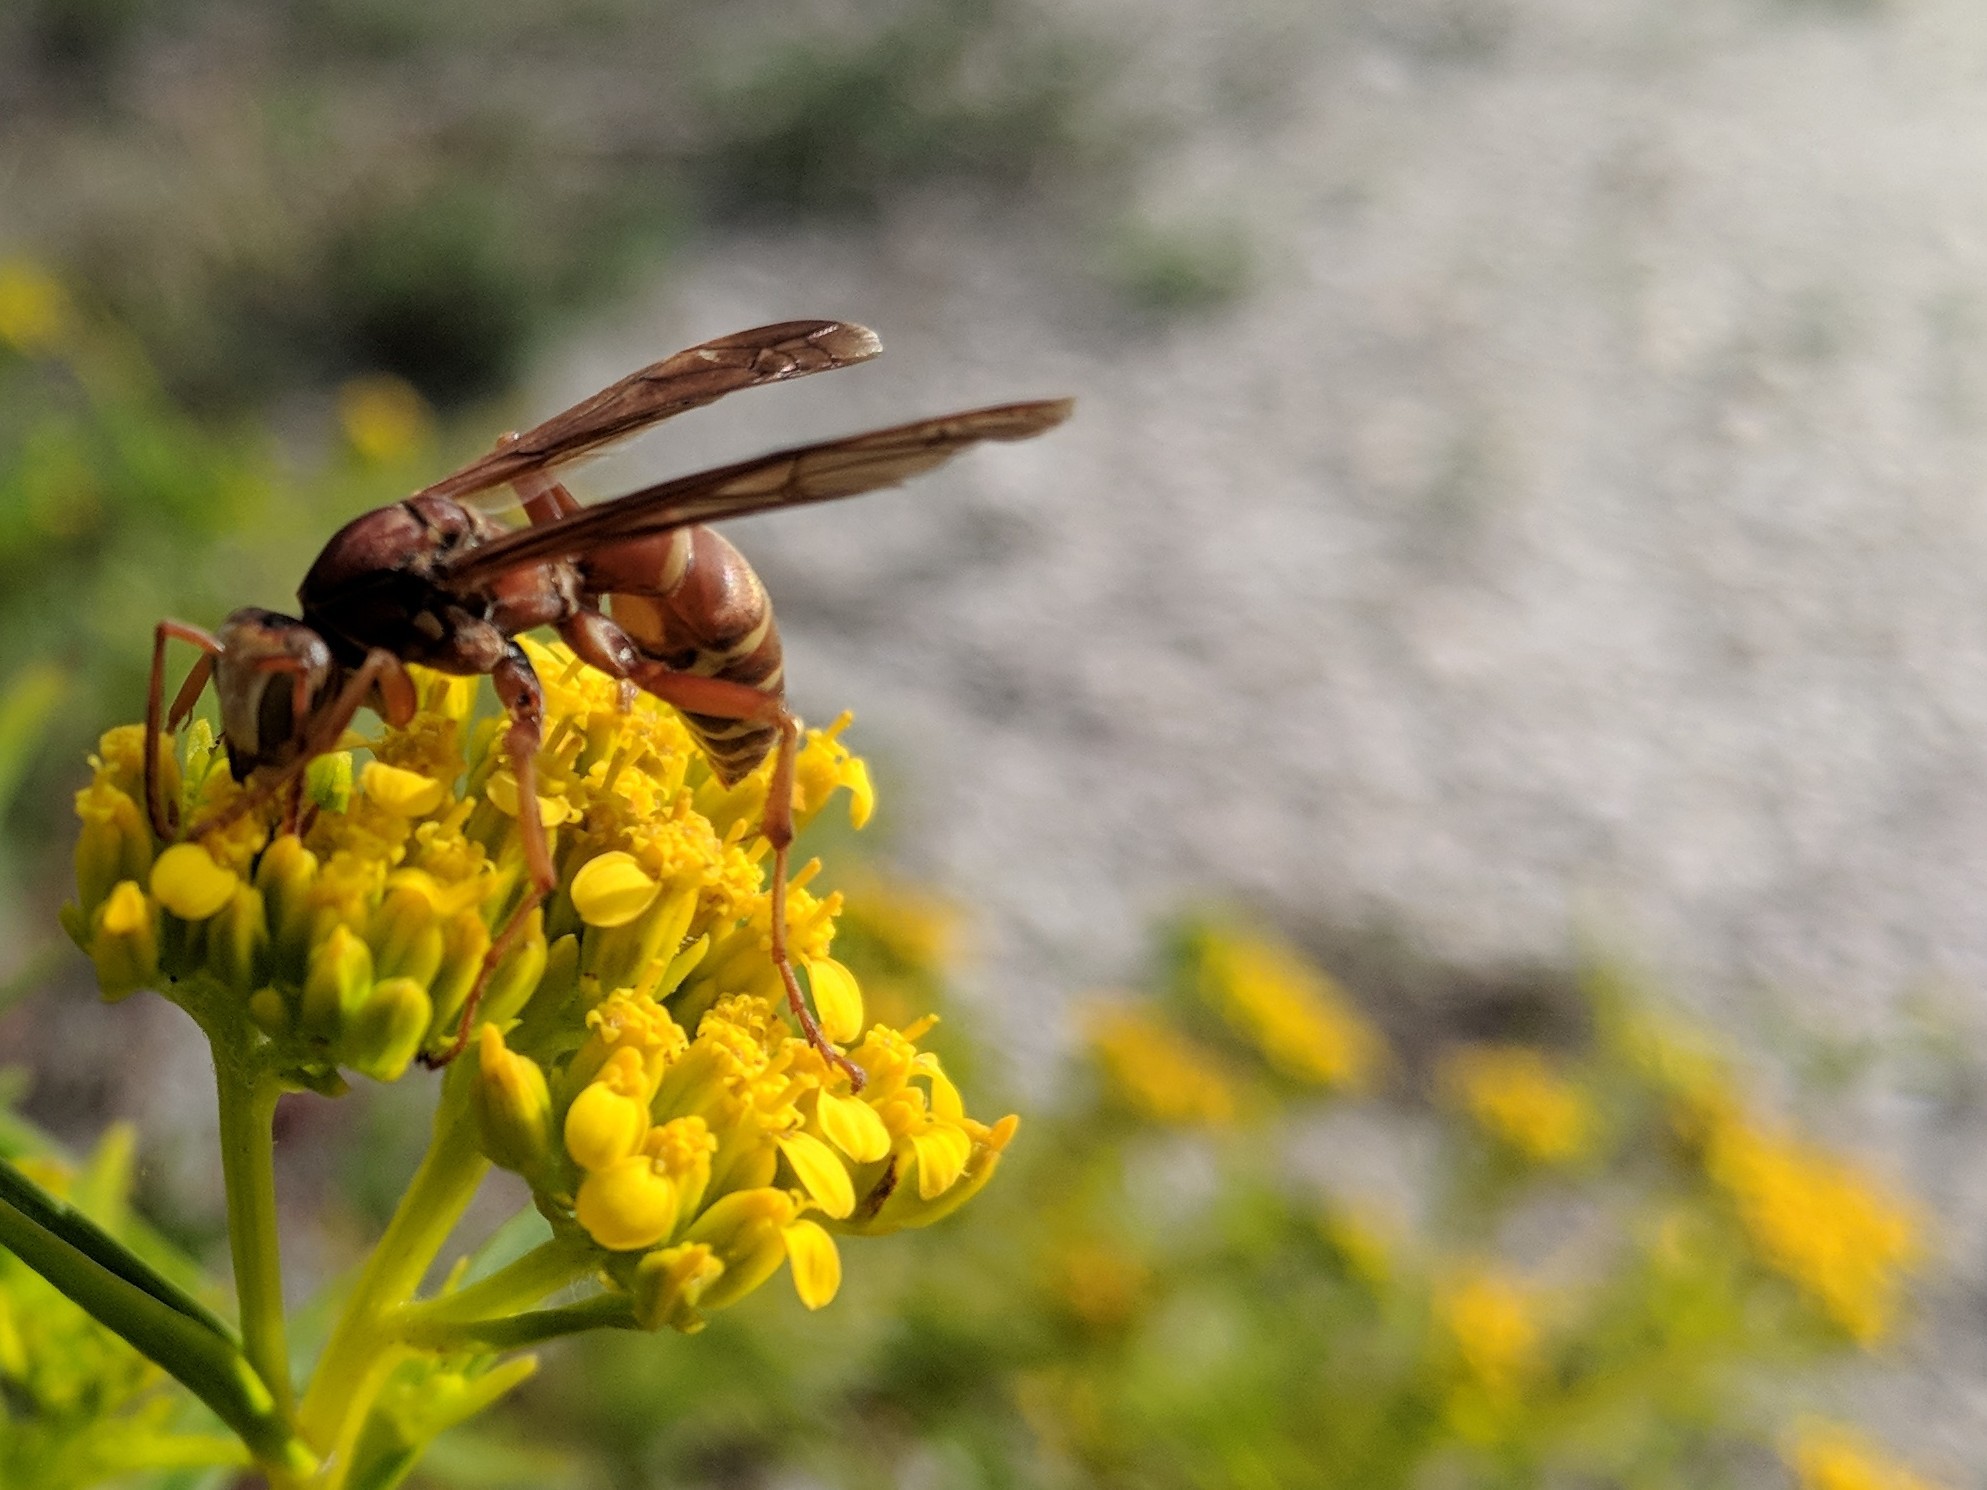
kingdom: Animalia
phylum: Arthropoda
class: Insecta
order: Hymenoptera
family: Eumenidae
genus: Polistes
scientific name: Polistes bellicosus
